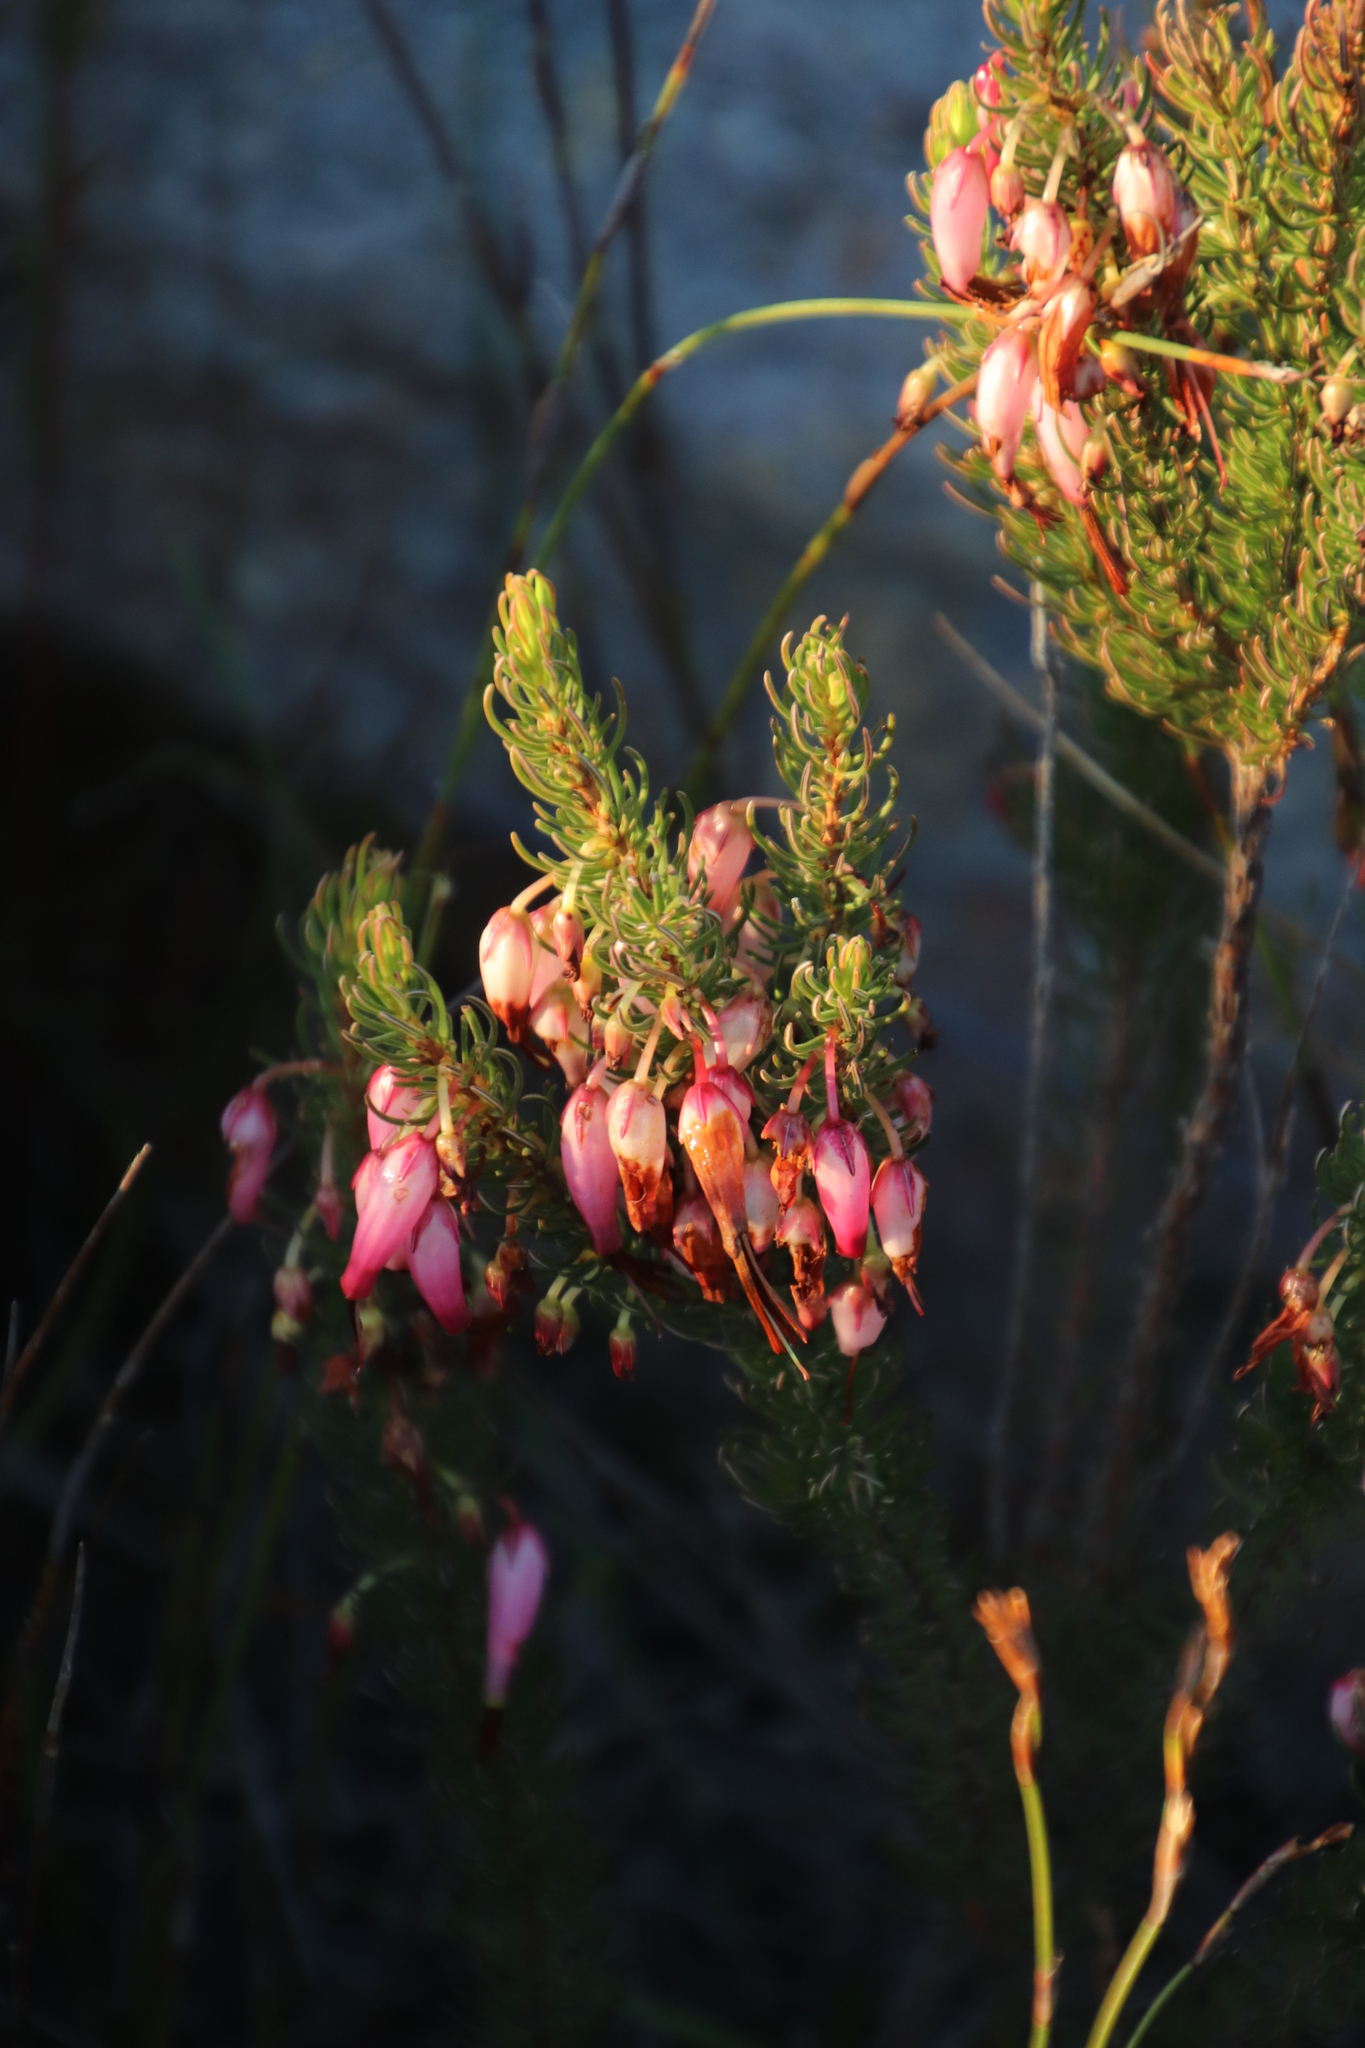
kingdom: Plantae
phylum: Tracheophyta
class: Magnoliopsida
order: Ericales
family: Ericaceae
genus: Erica
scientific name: Erica plukenetii
